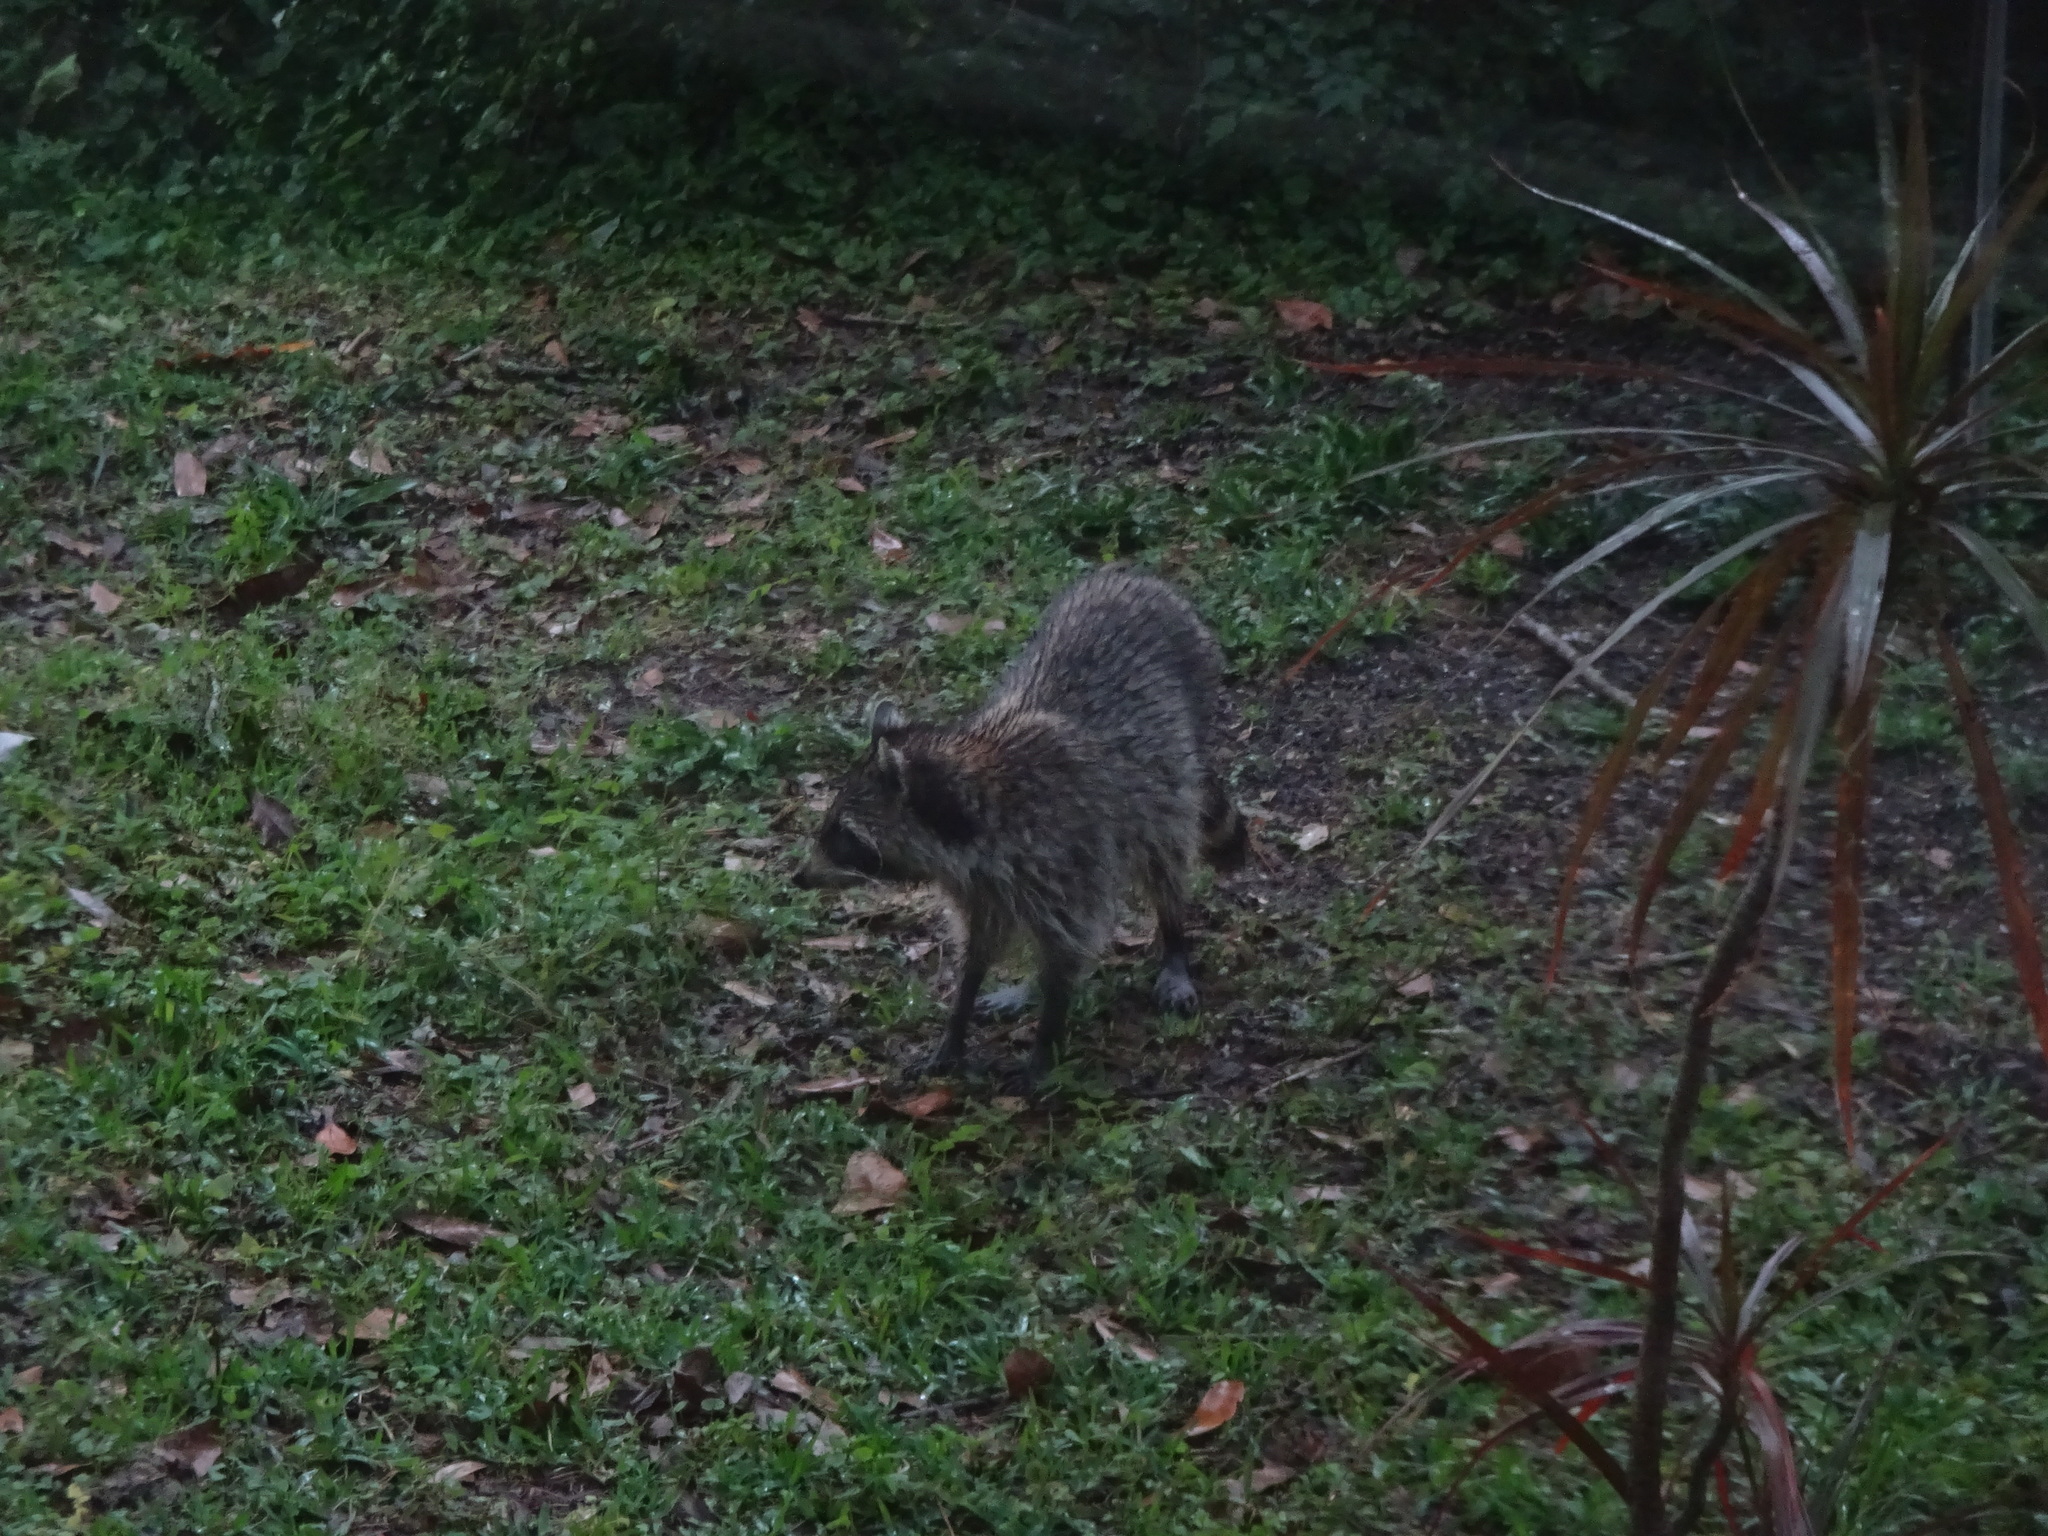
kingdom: Animalia
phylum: Chordata
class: Mammalia
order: Carnivora
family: Procyonidae
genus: Procyon
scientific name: Procyon lotor
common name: Raccoon
